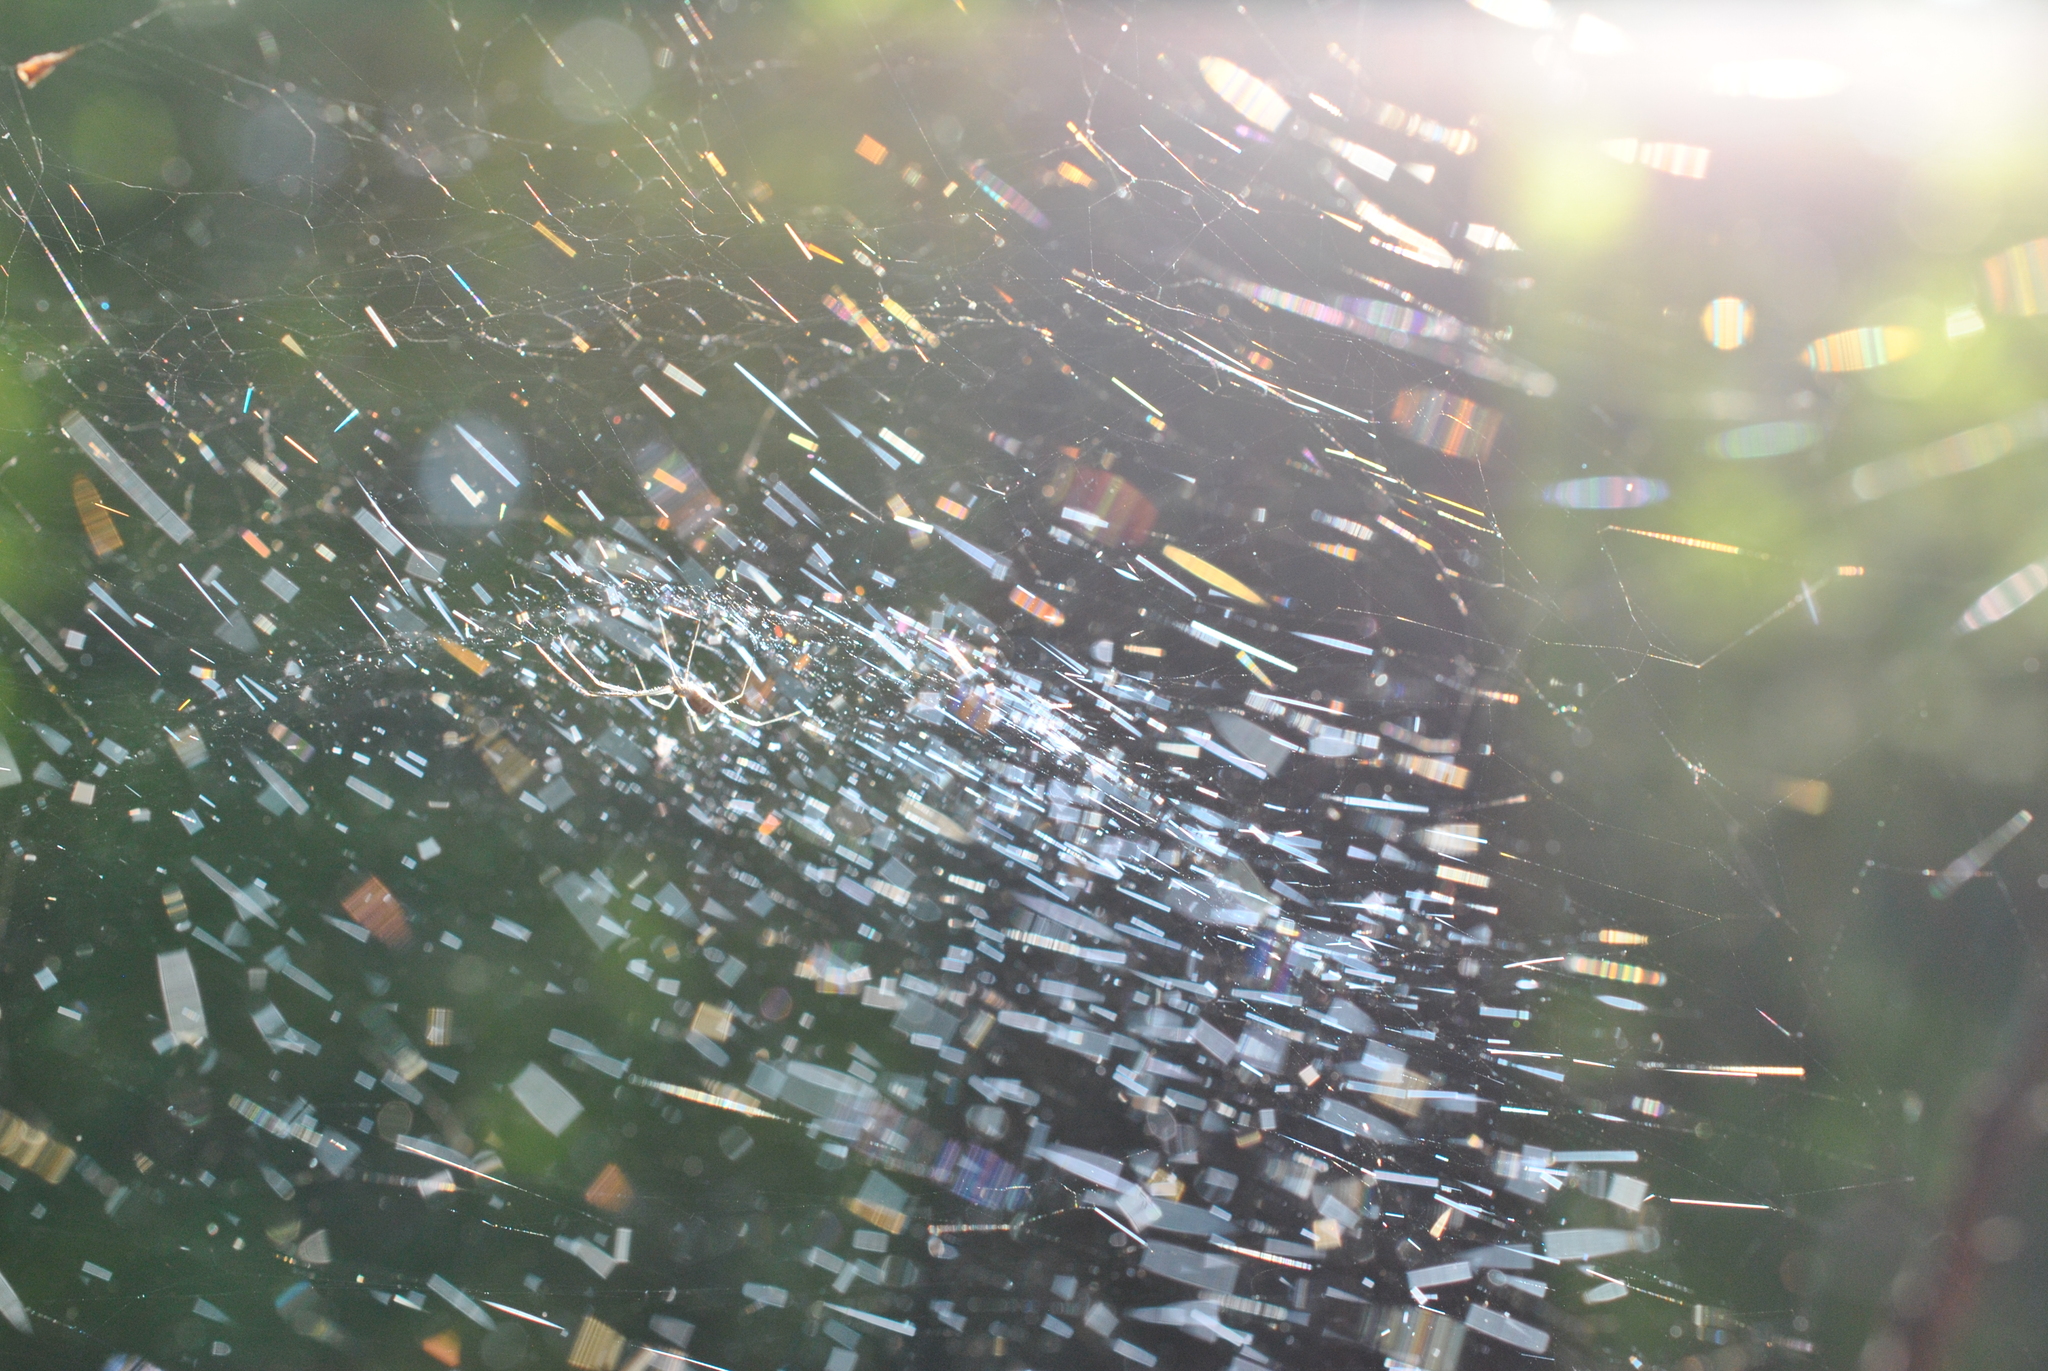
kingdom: Animalia
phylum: Arthropoda
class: Arachnida
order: Araneae
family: Linyphiidae
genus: Neriene
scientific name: Neriene radiata
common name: Filmy dome spider
